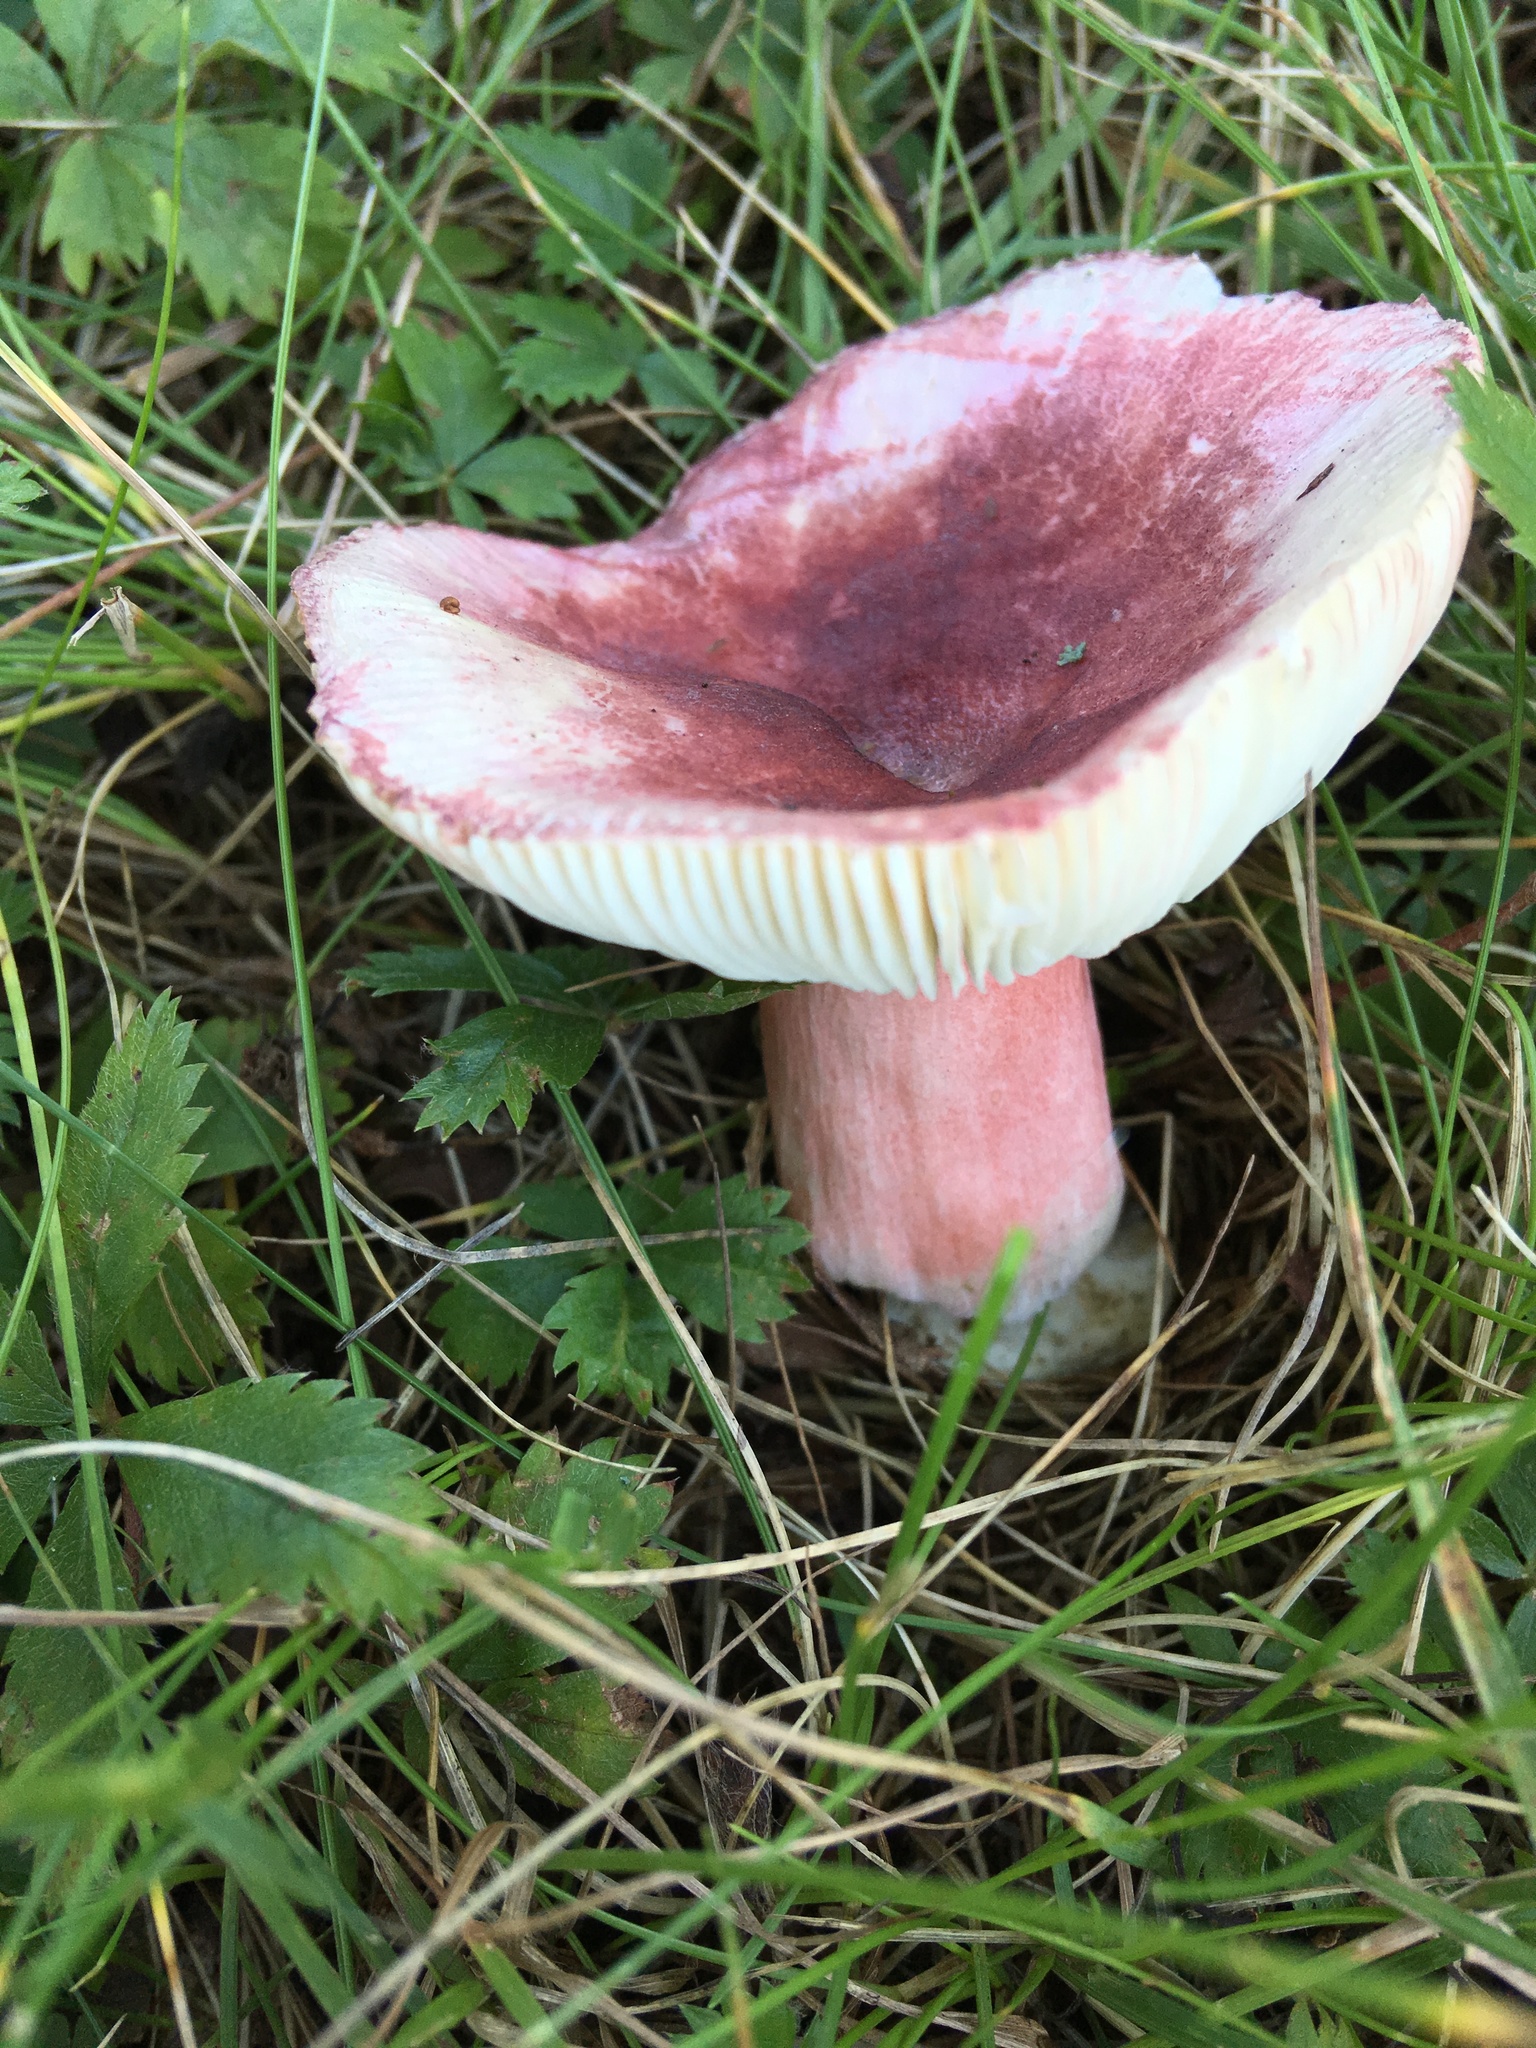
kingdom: Fungi
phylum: Basidiomycota
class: Agaricomycetes
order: Russulales
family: Russulaceae
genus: Russula
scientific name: Russula mariae
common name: Purple-bloom russula
